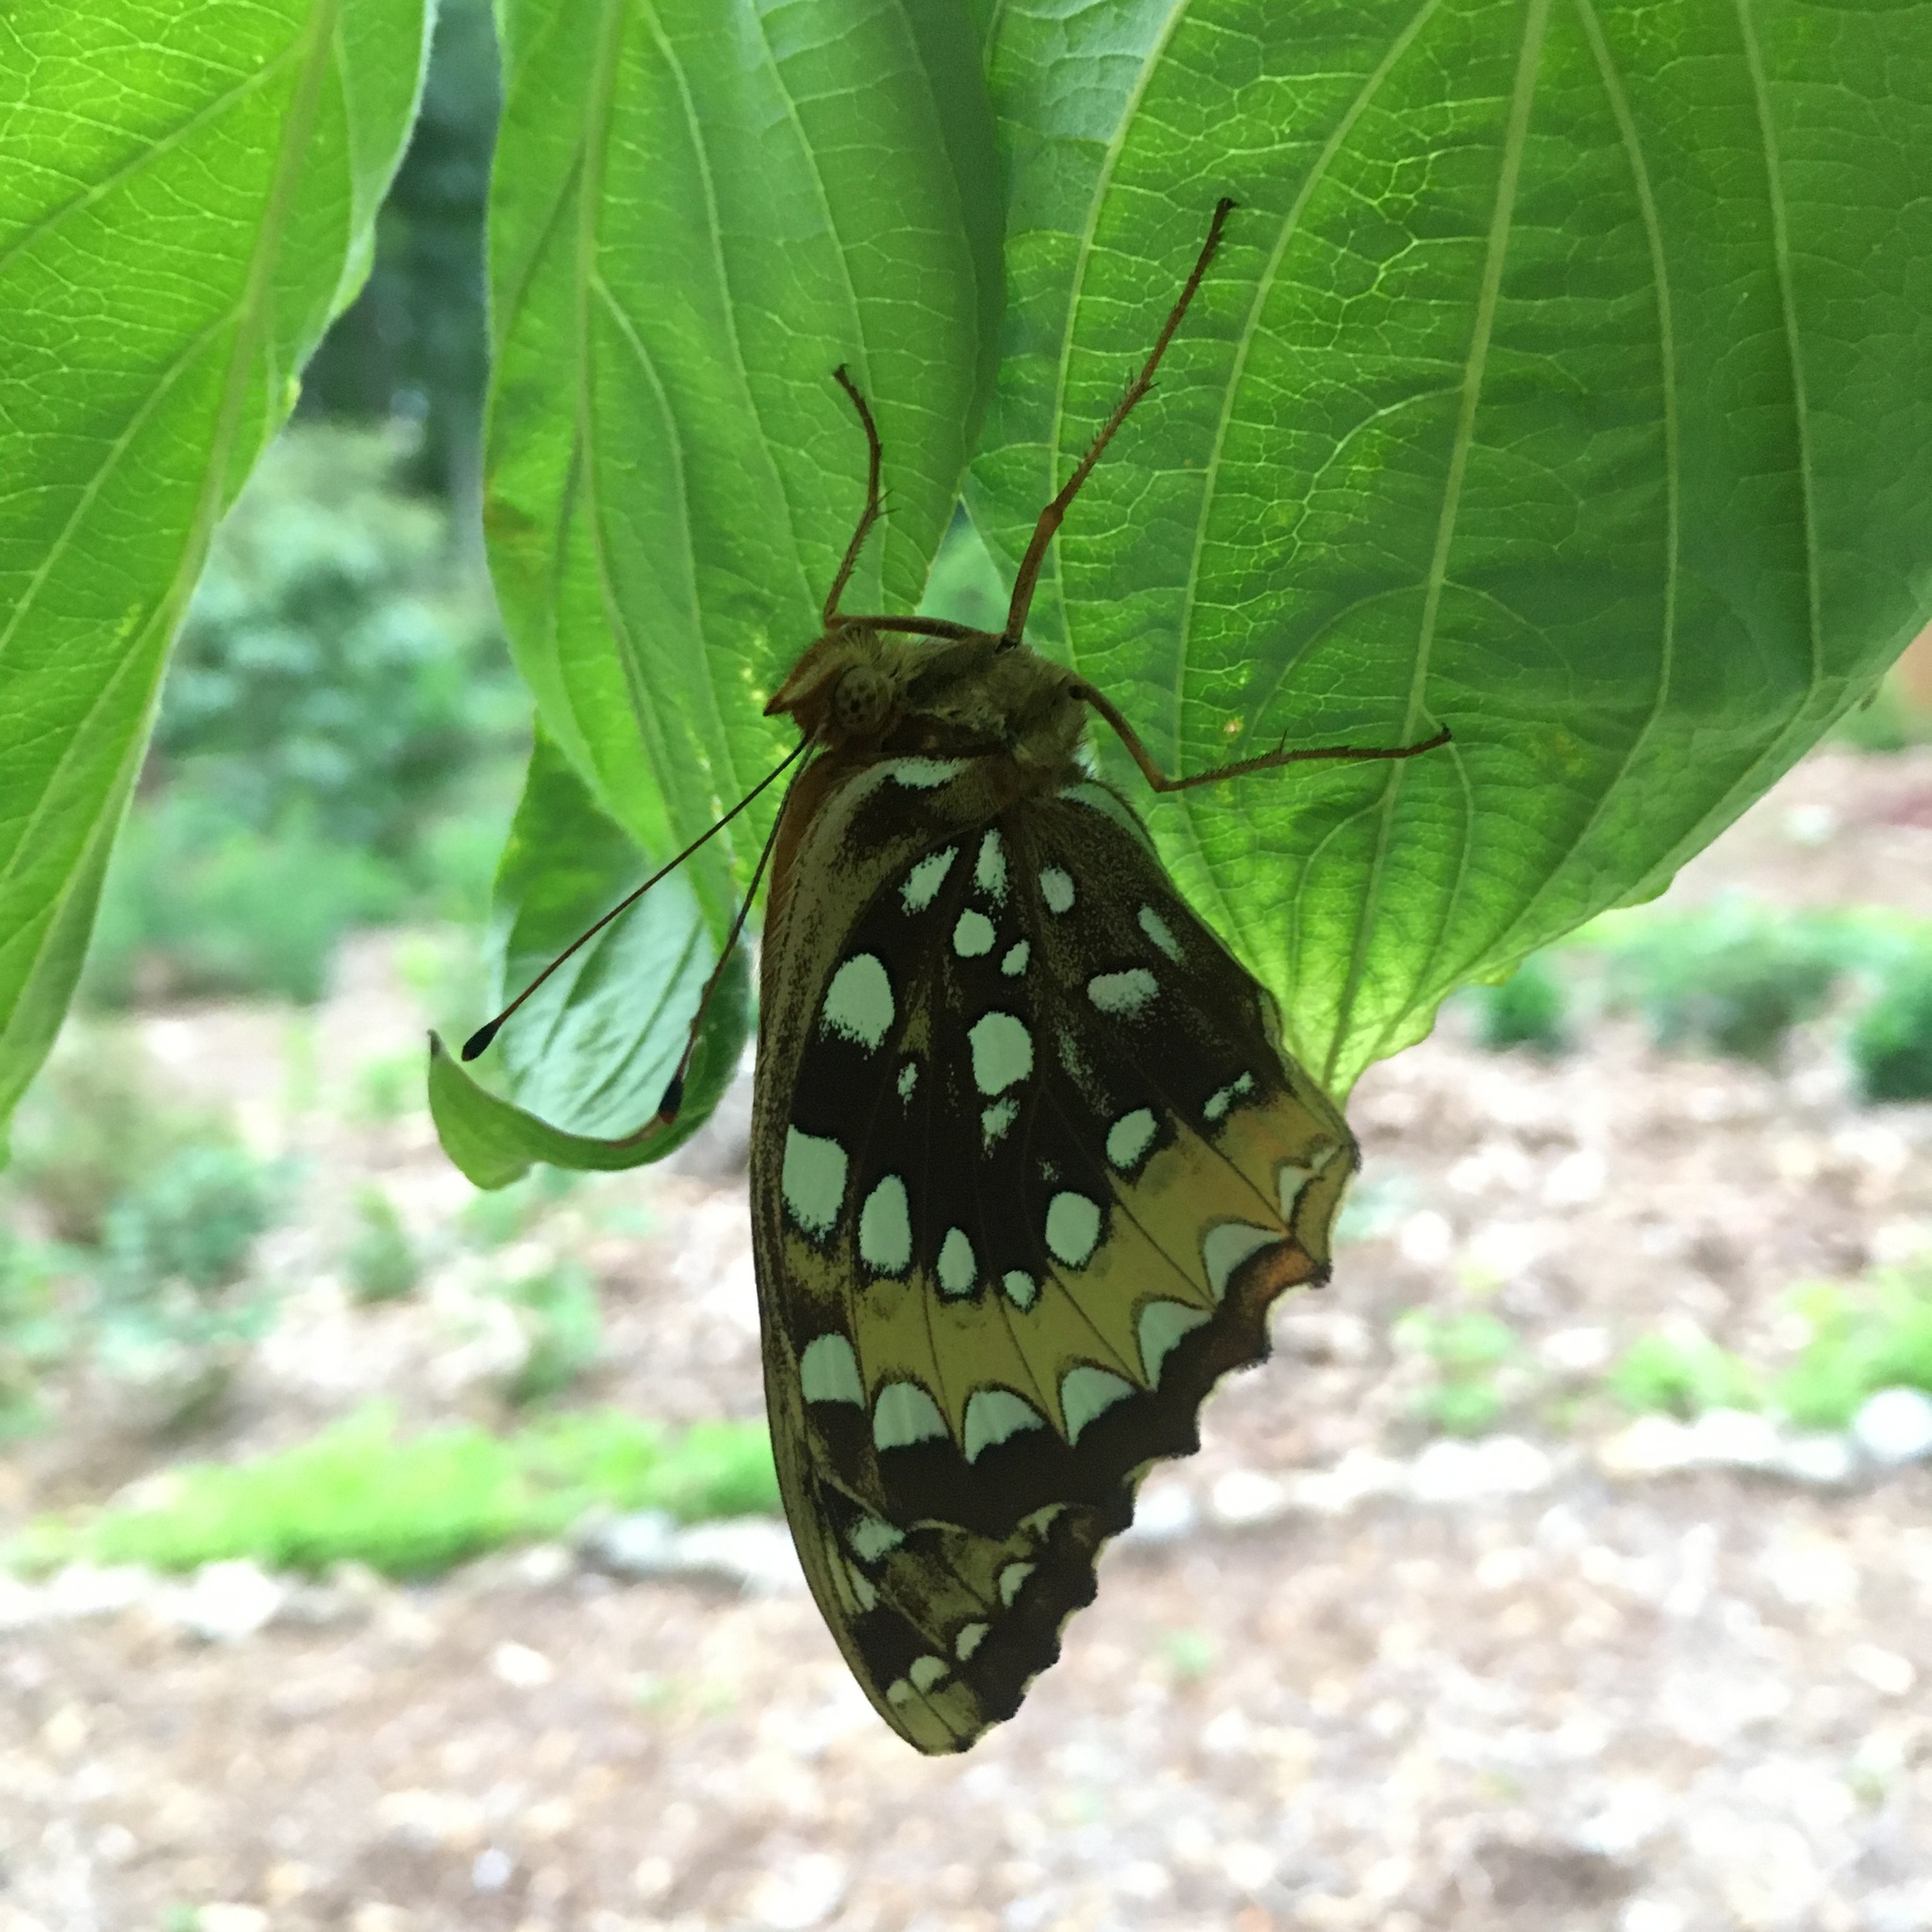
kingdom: Animalia
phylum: Arthropoda
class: Insecta
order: Lepidoptera
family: Nymphalidae
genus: Speyeria
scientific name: Speyeria cybele
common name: Great spangled fritillary
